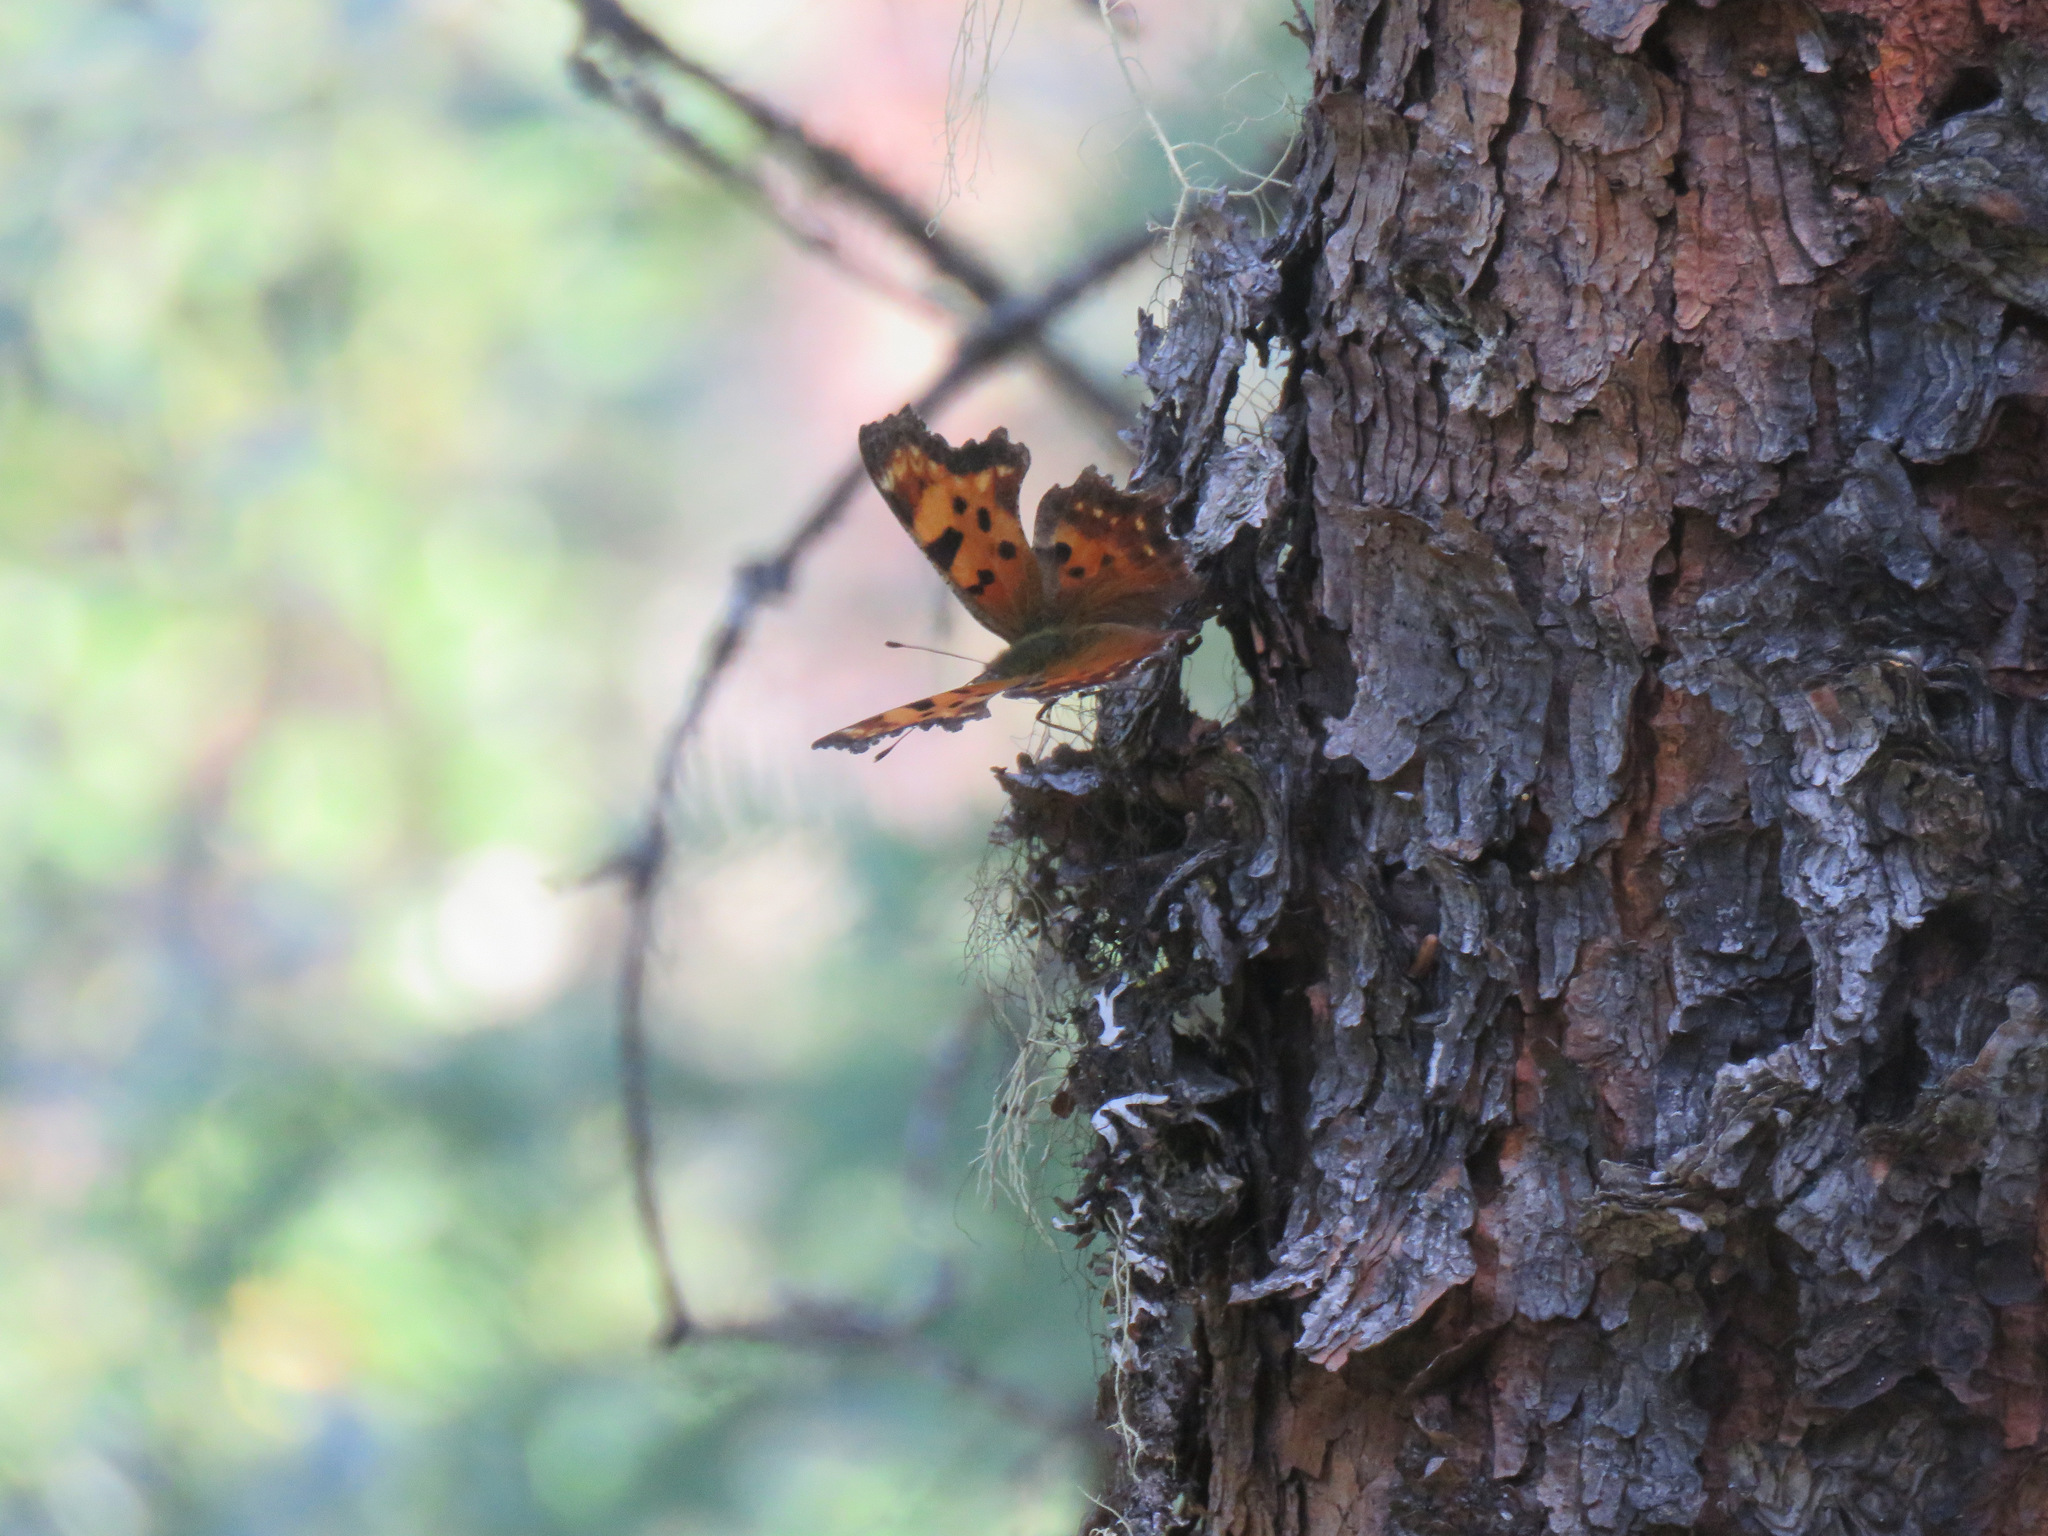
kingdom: Animalia
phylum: Arthropoda
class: Insecta
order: Lepidoptera
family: Nymphalidae
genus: Polygonia
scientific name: Polygonia faunus
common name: Green comma
